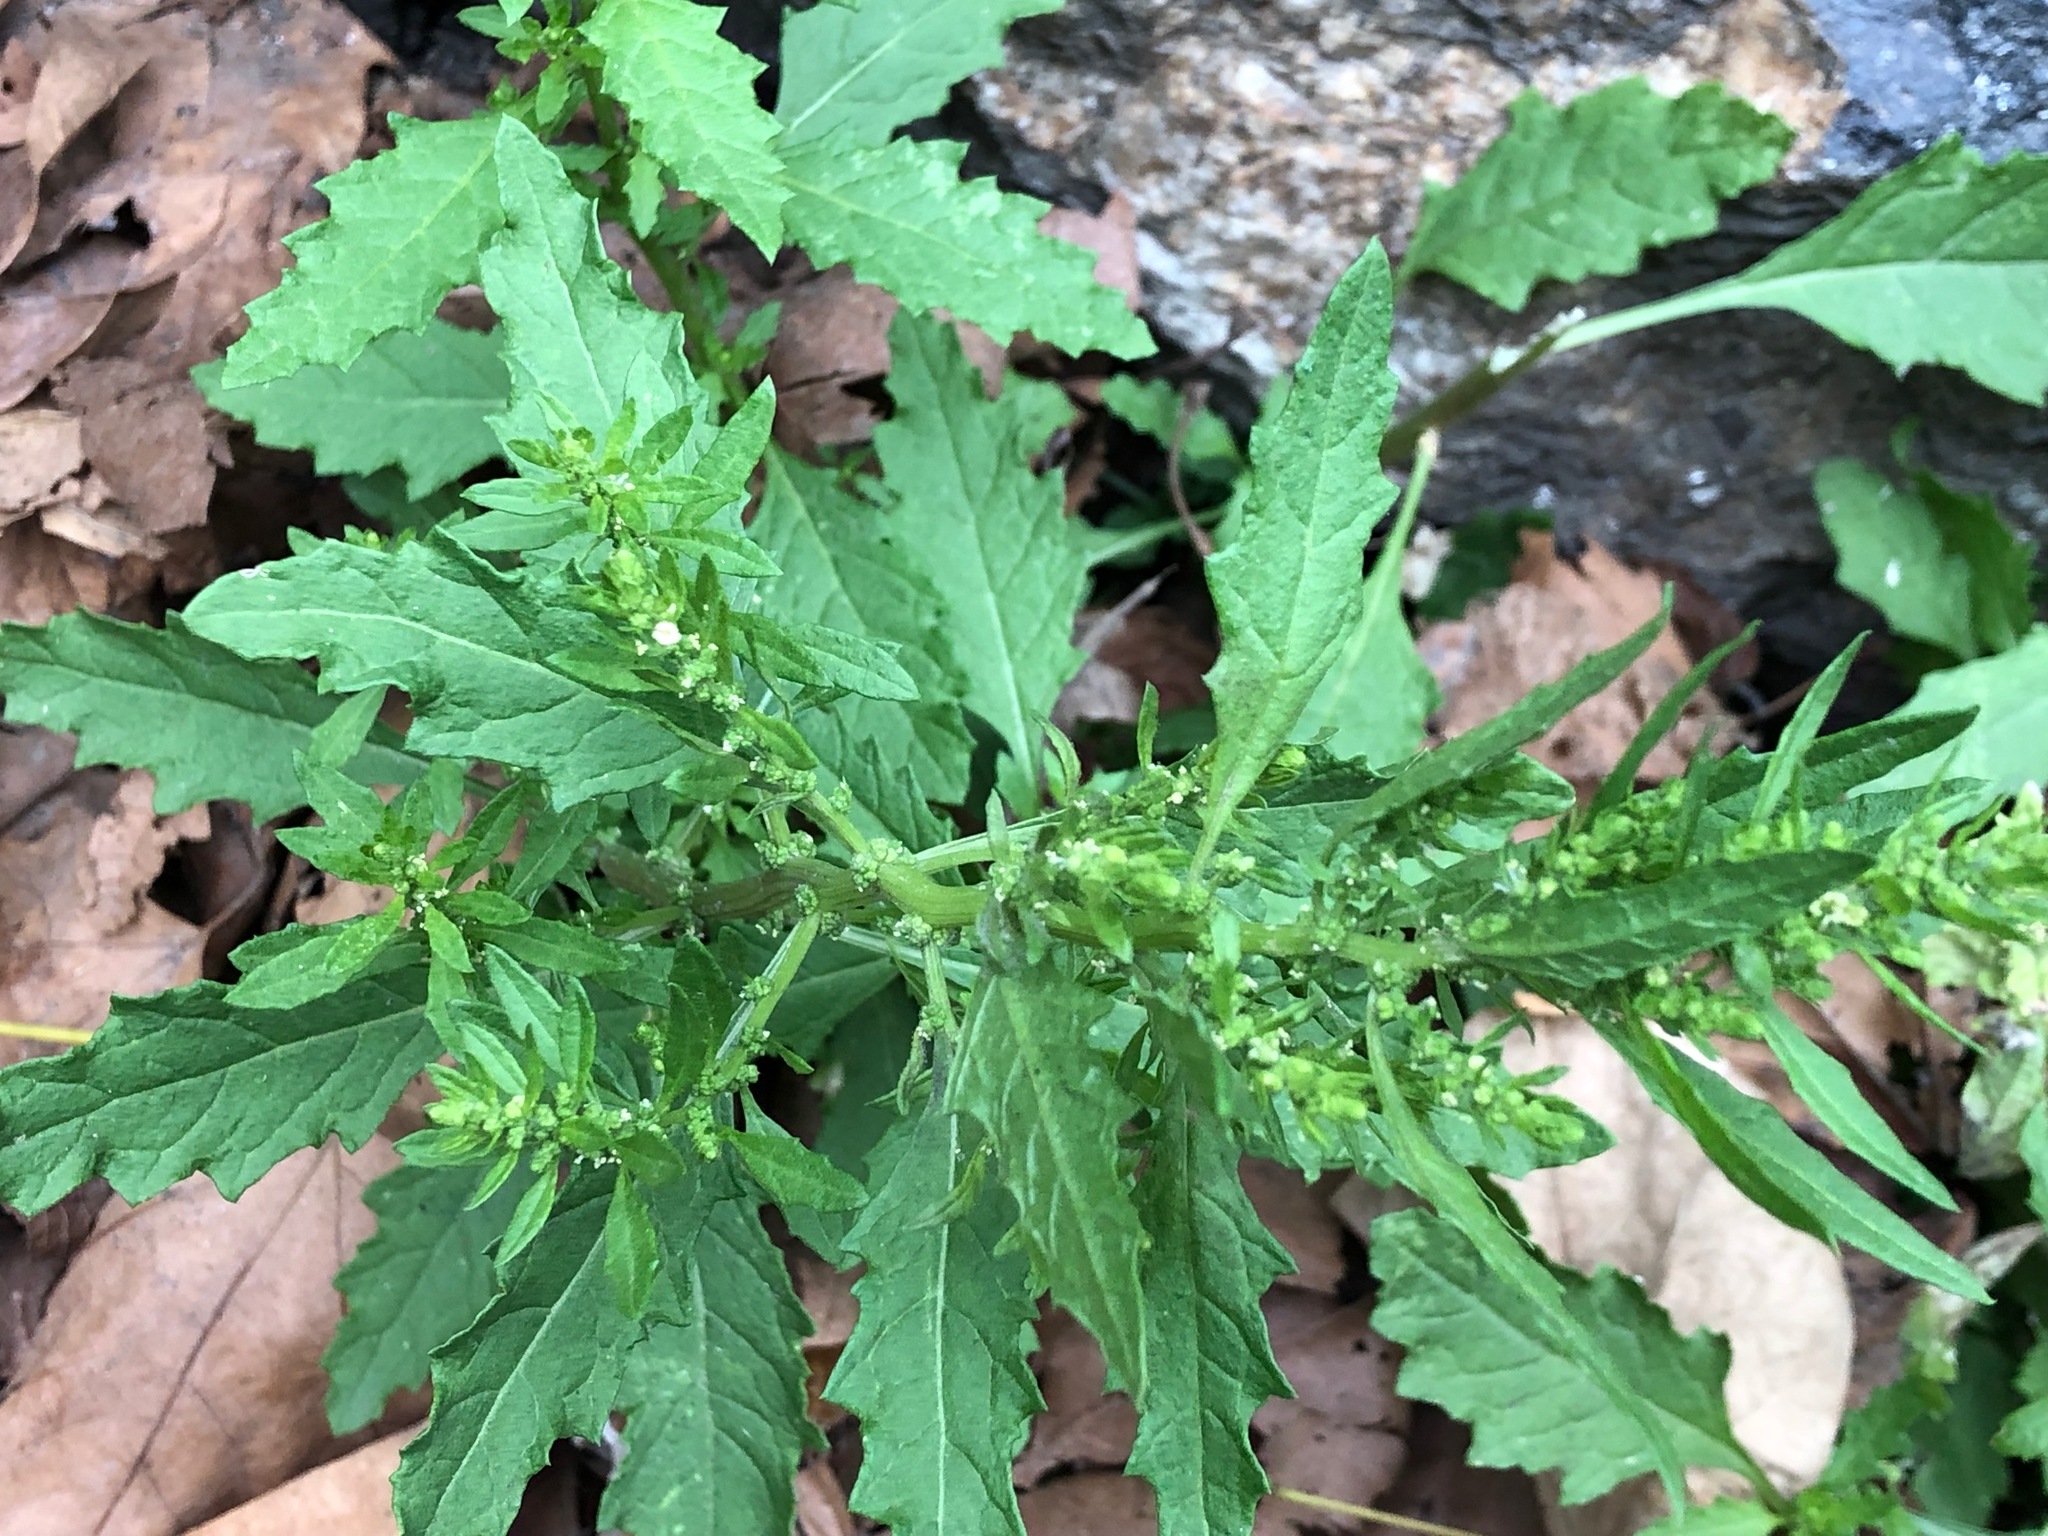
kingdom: Plantae
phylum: Tracheophyta
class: Magnoliopsida
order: Caryophyllales
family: Amaranthaceae
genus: Dysphania
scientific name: Dysphania ambrosioides
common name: Wormseed
